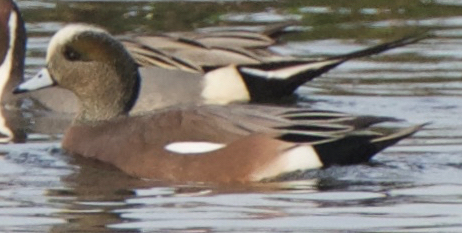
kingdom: Animalia
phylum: Chordata
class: Aves
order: Anseriformes
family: Anatidae
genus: Mareca
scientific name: Mareca americana
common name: American wigeon
